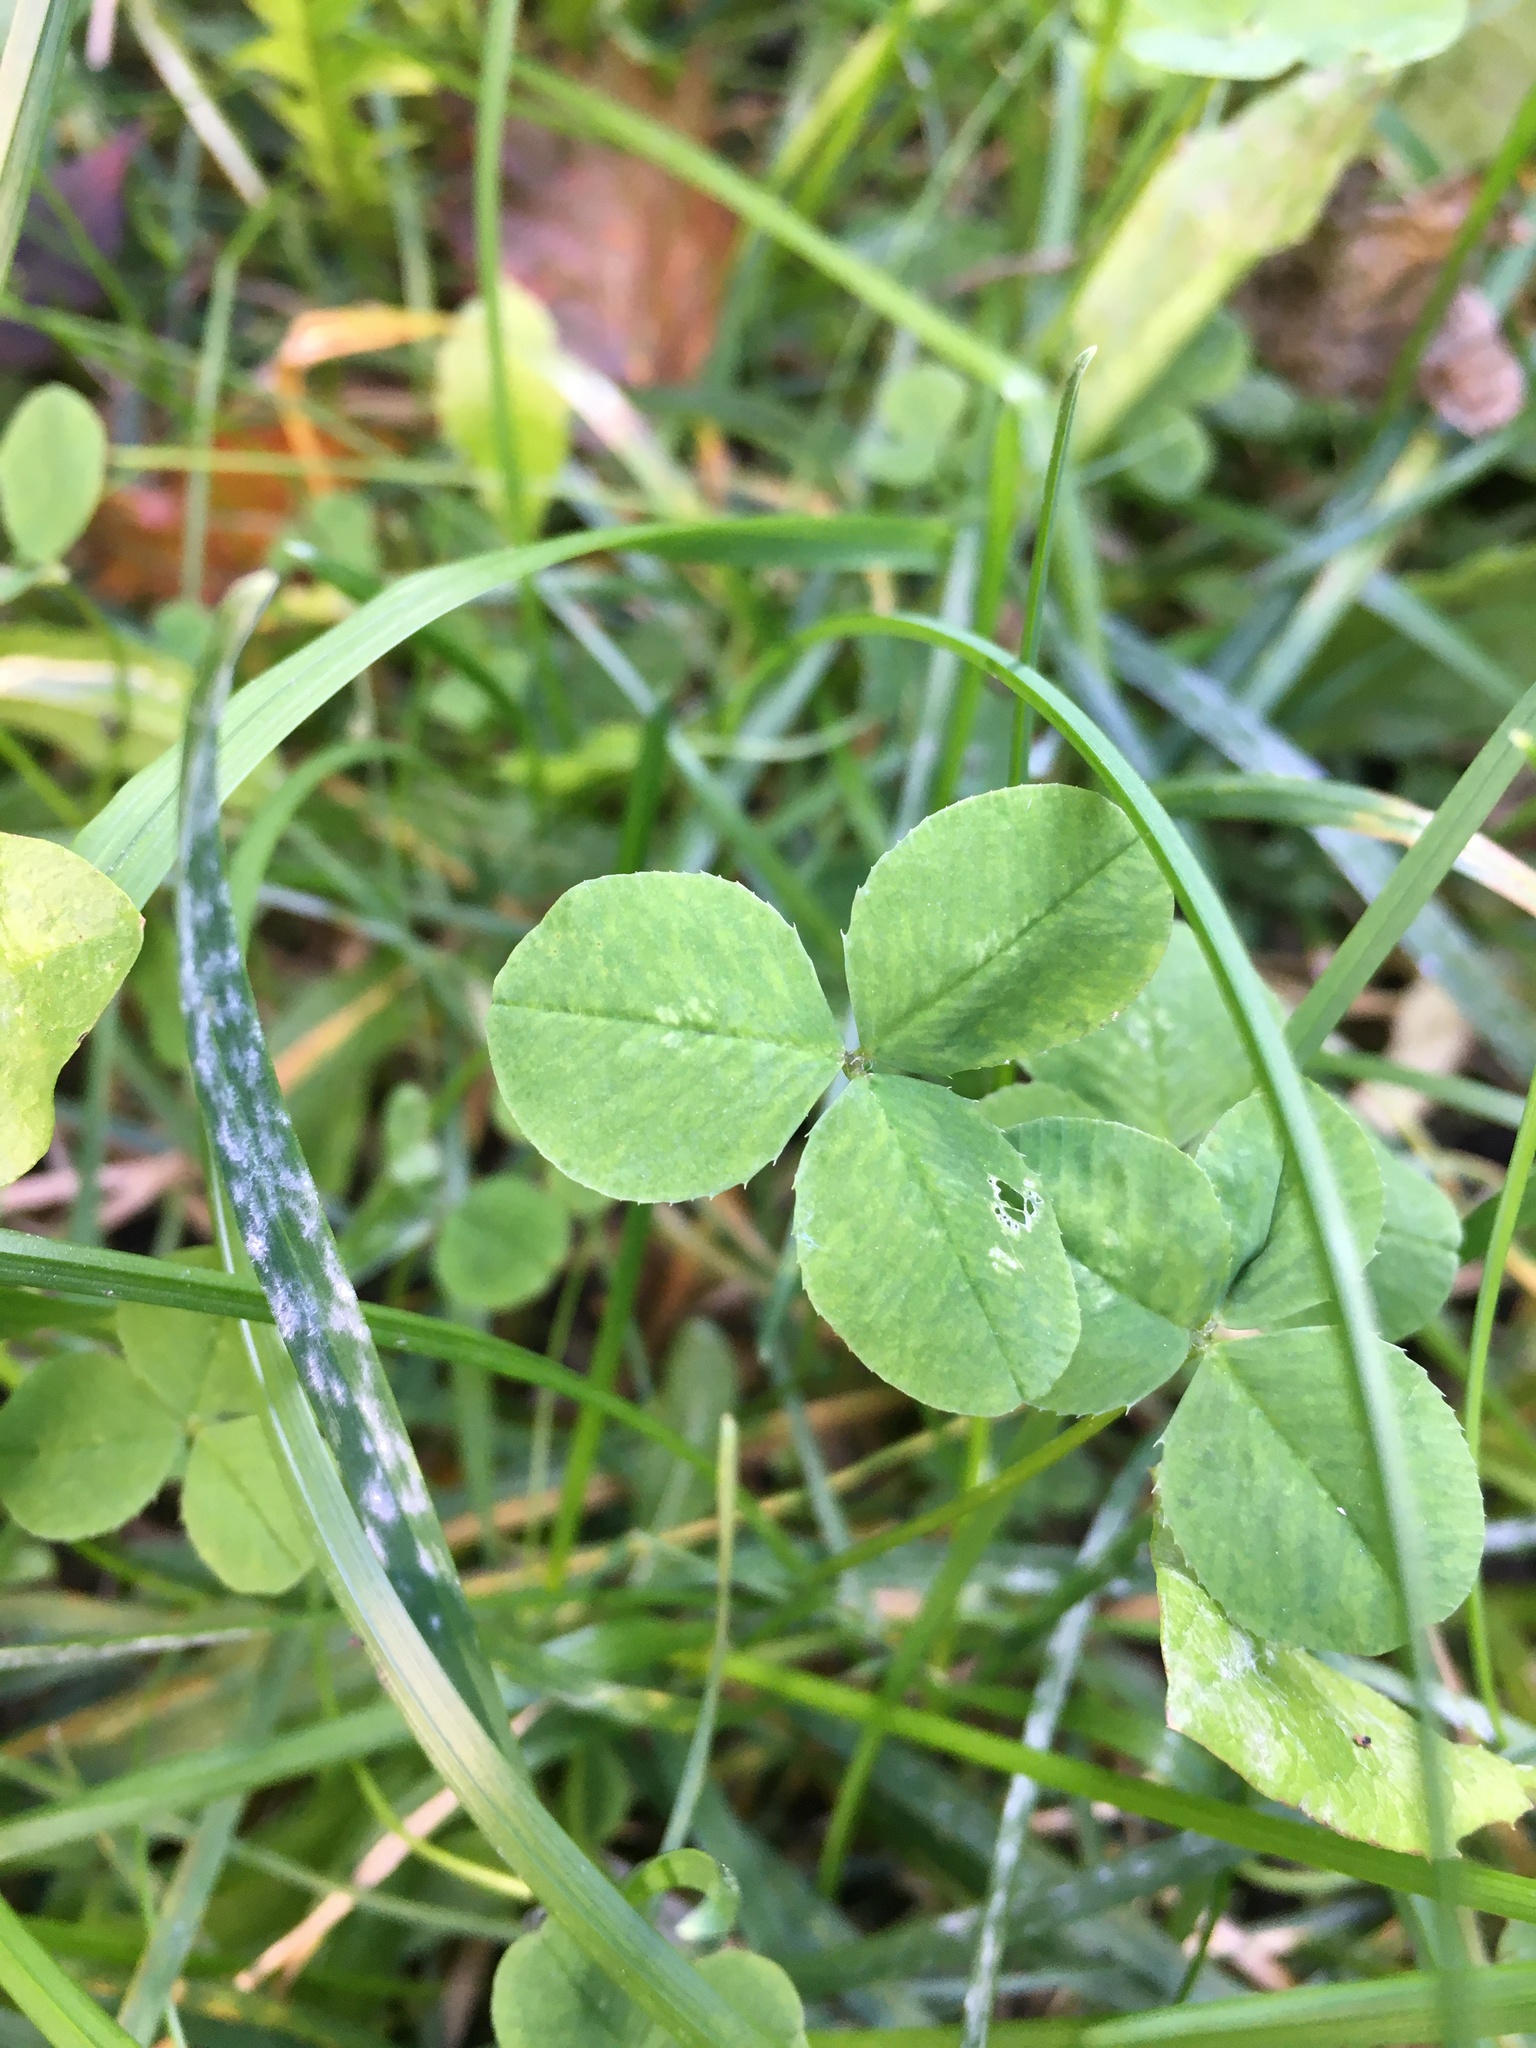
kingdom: Plantae
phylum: Tracheophyta
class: Magnoliopsida
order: Fabales
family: Fabaceae
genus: Trifolium
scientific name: Trifolium repens
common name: White clover
